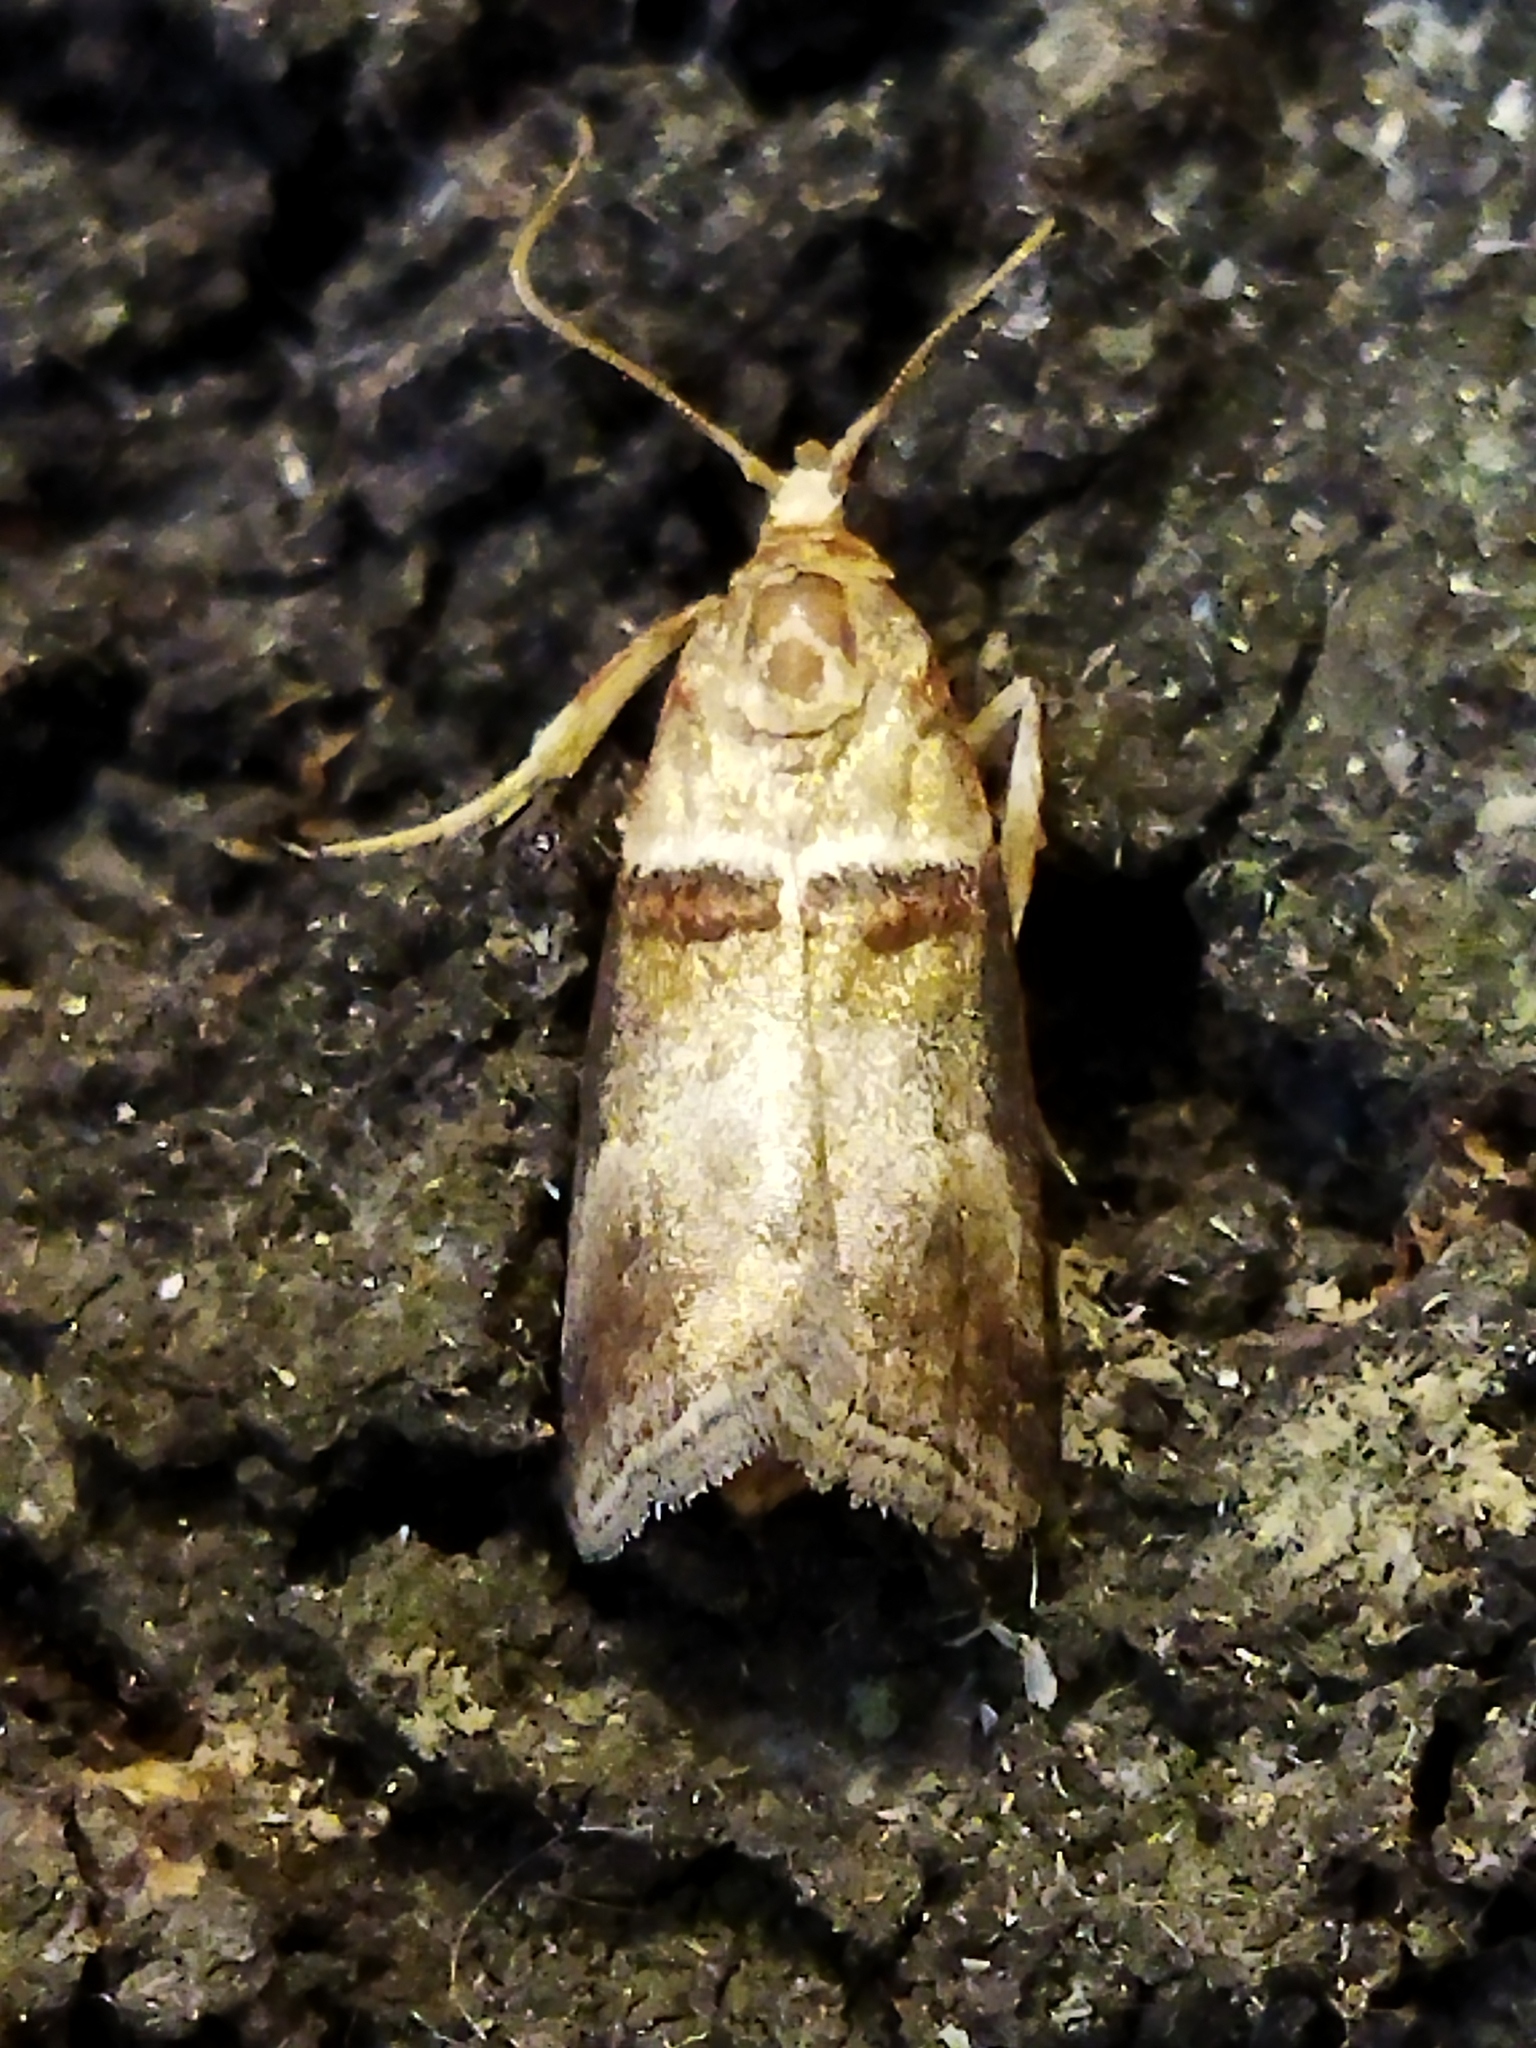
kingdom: Animalia
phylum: Arthropoda
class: Insecta
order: Lepidoptera
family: Pyralidae
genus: Acrobasis
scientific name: Acrobasis tumidana
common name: Scarce oak knot-horn
